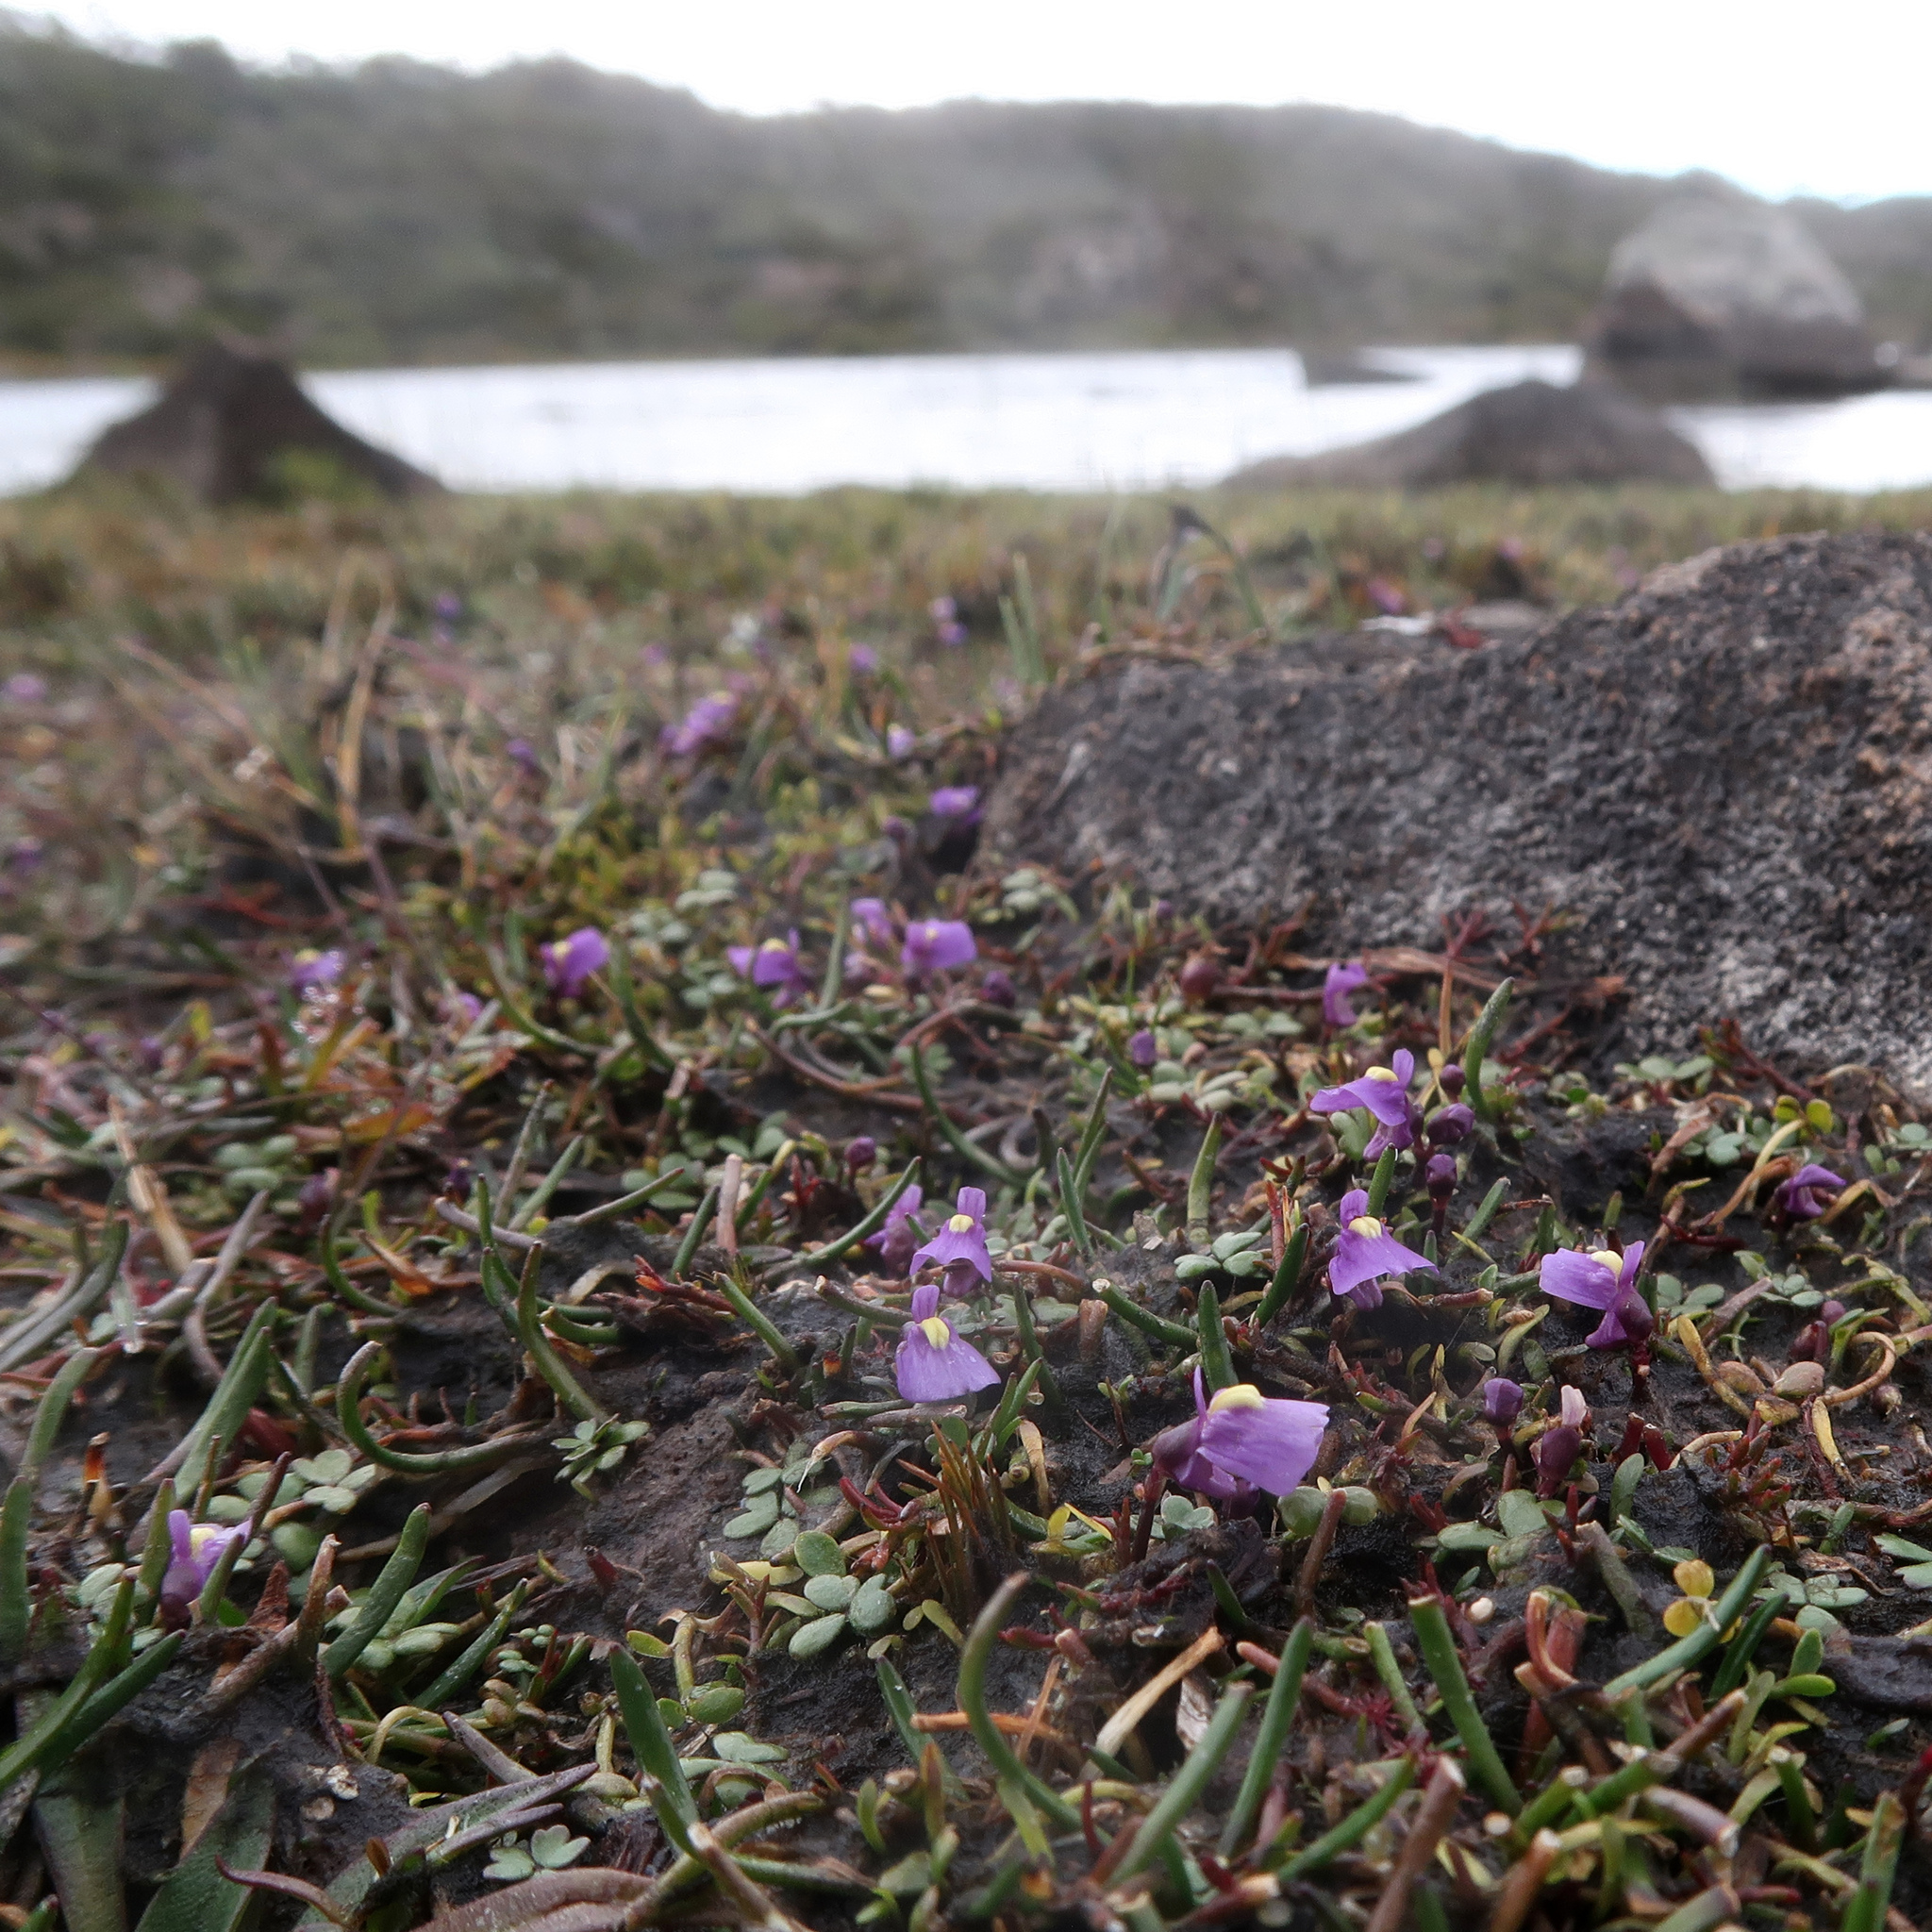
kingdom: Plantae
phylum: Tracheophyta
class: Magnoliopsida
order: Lamiales
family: Lentibulariaceae
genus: Utricularia
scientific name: Utricularia dichotoma
